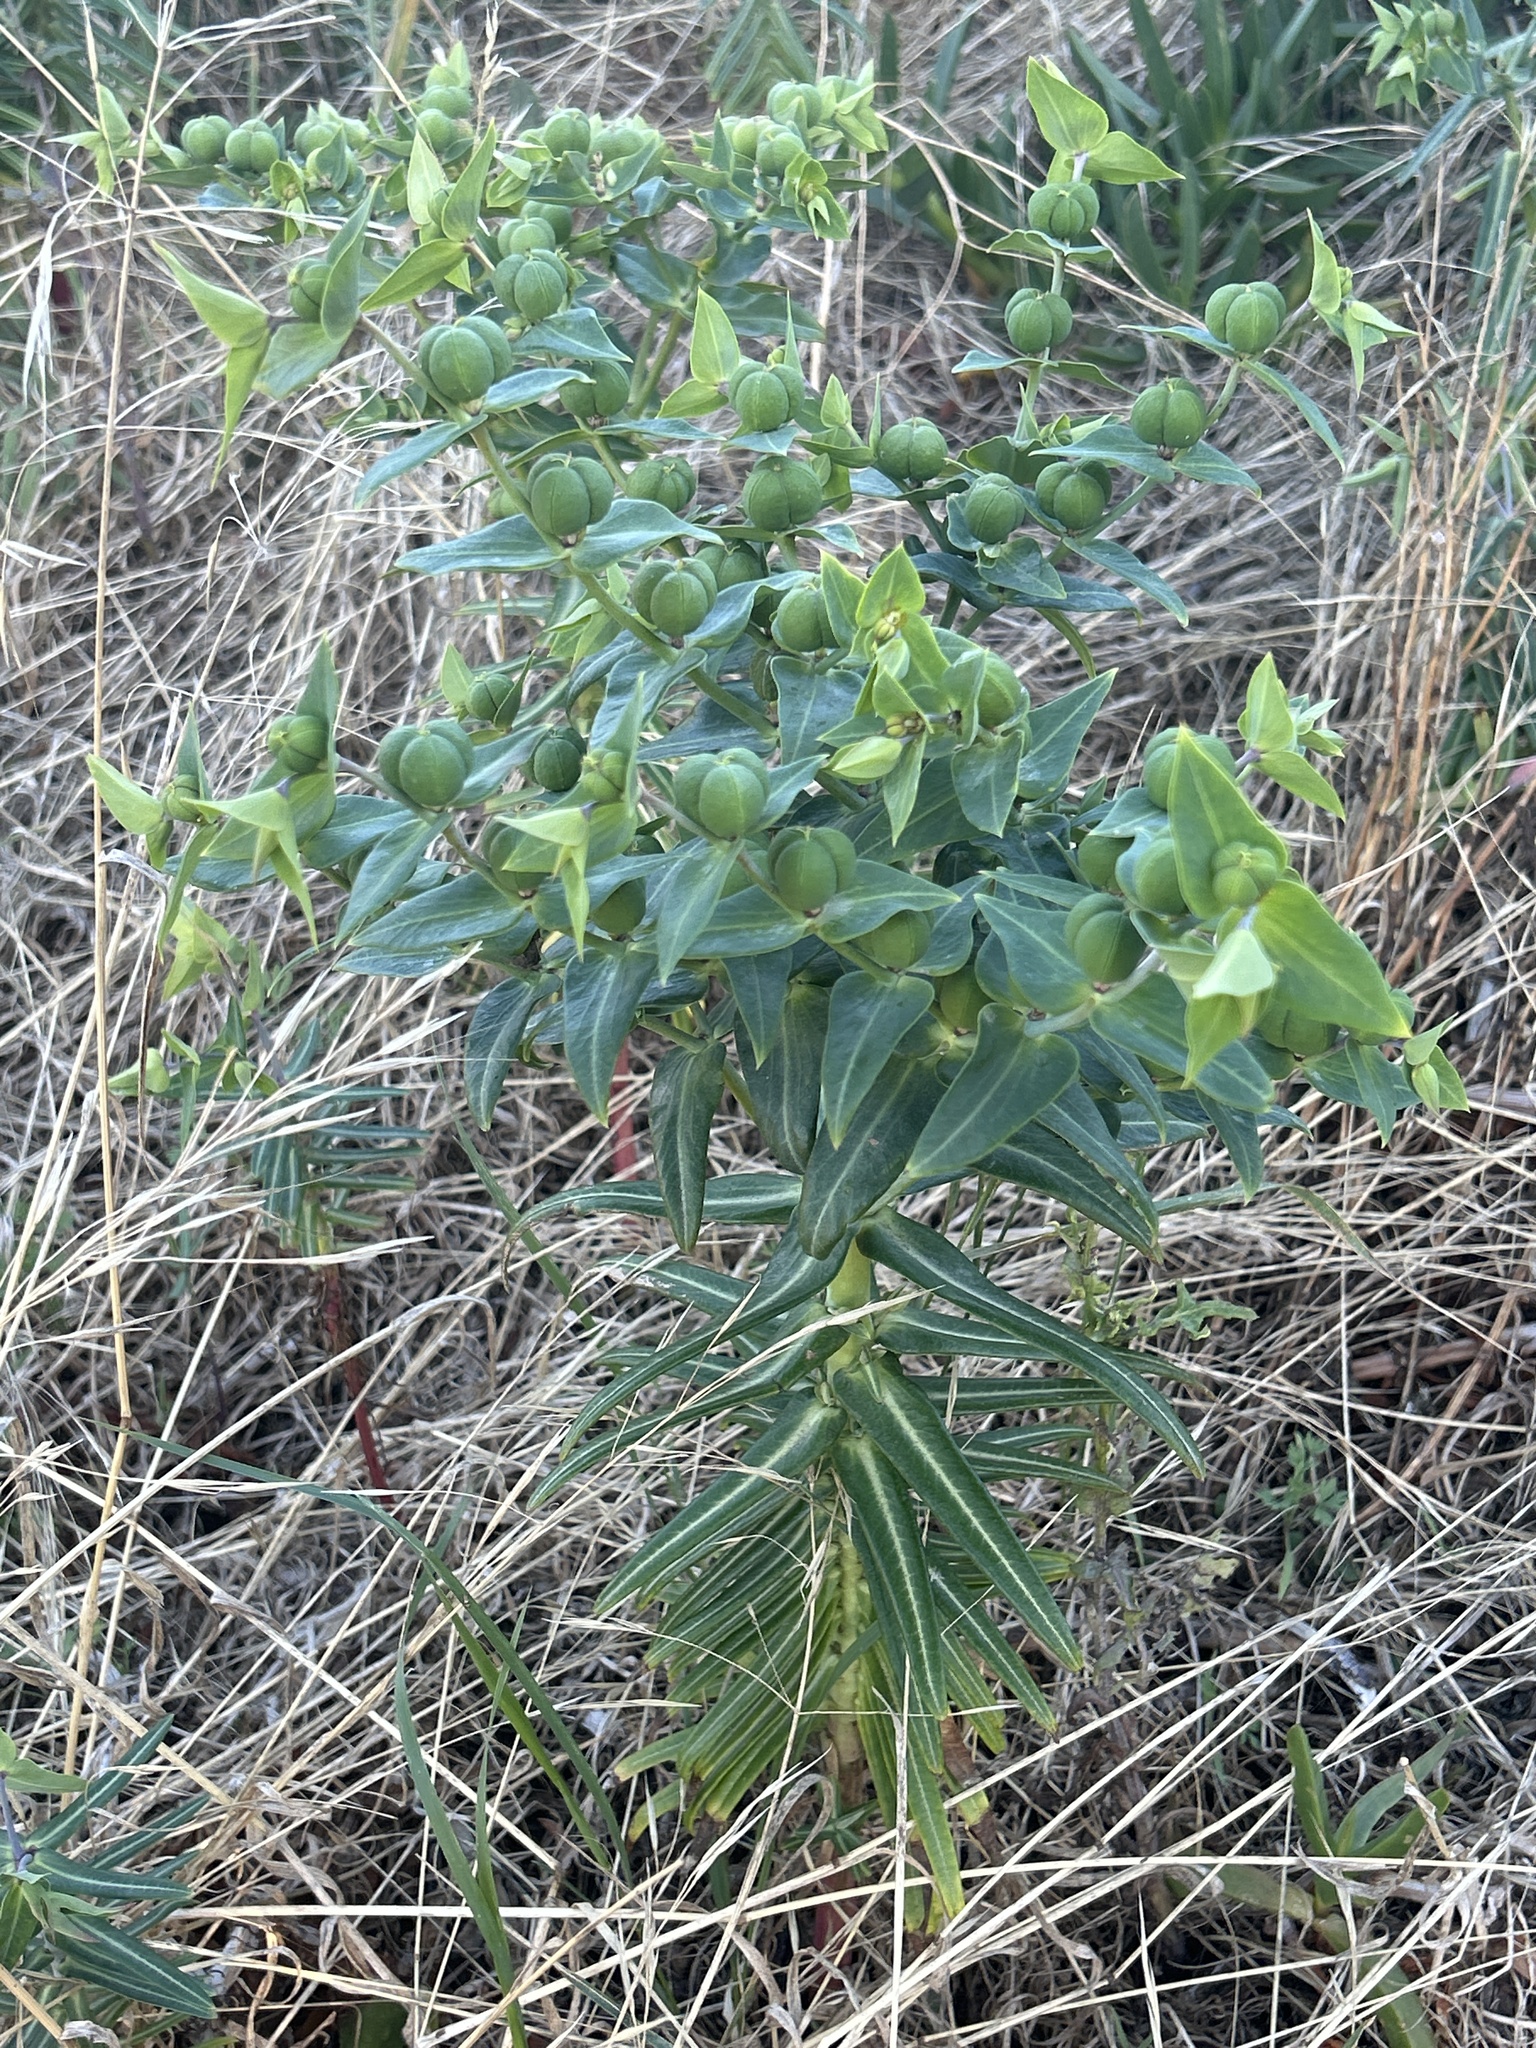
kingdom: Plantae
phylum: Tracheophyta
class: Magnoliopsida
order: Malpighiales
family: Euphorbiaceae
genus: Euphorbia
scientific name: Euphorbia lathyris
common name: Caper spurge
